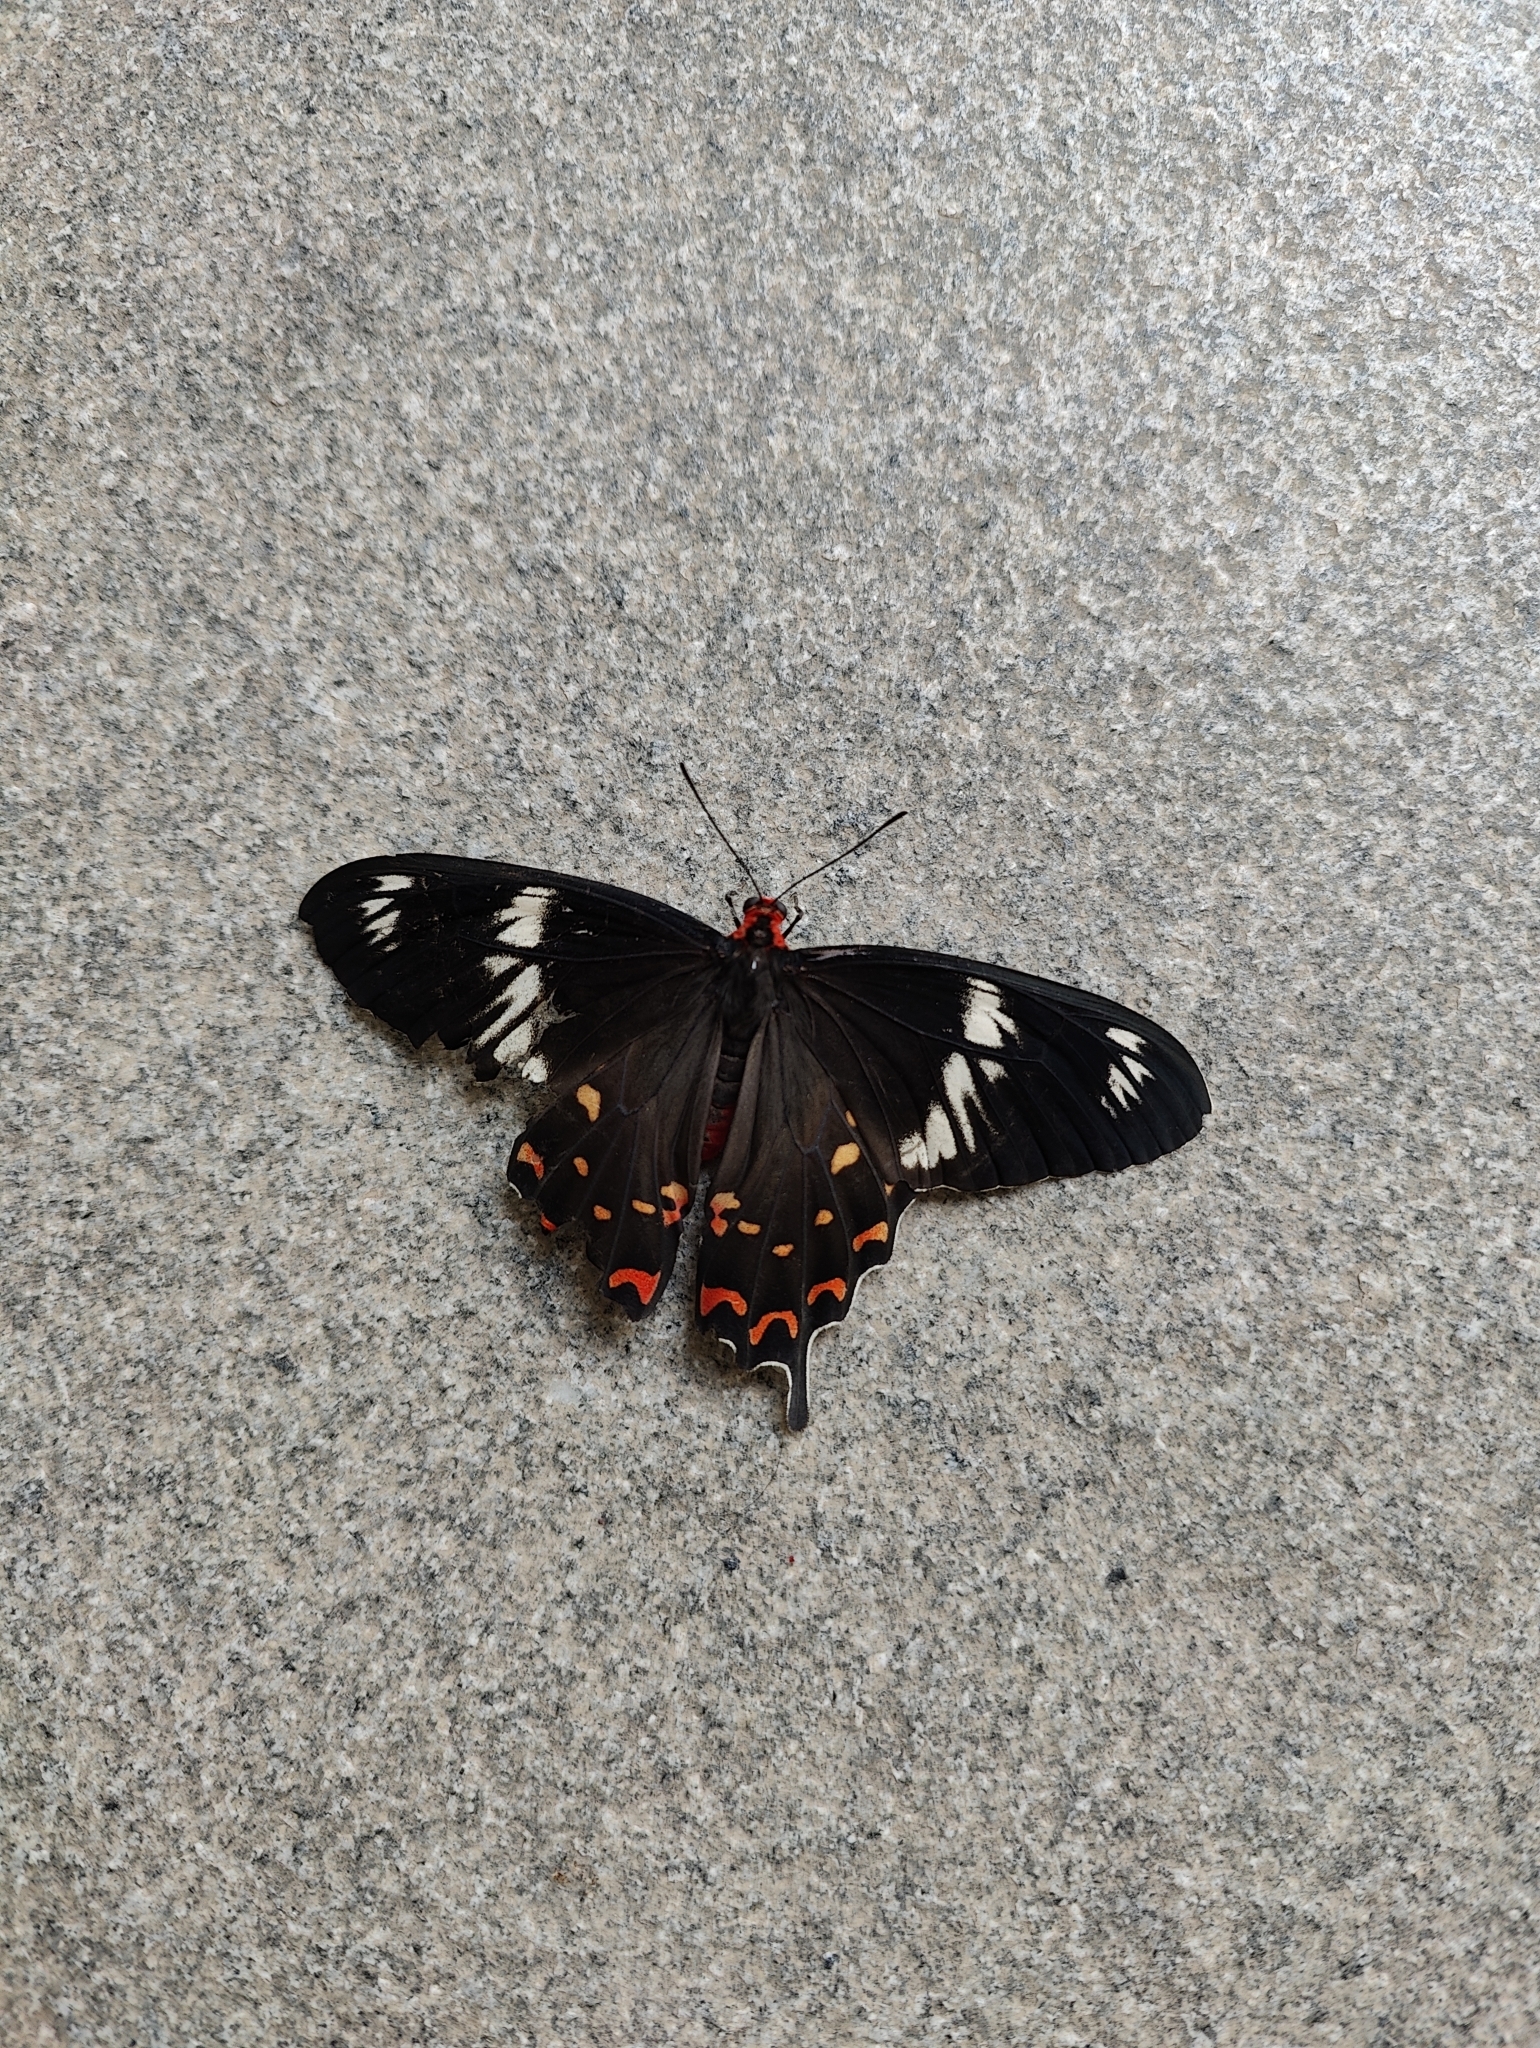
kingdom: Animalia
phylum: Arthropoda
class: Insecta
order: Lepidoptera
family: Papilionidae
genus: Pachliopta
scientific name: Pachliopta hector
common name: Crimson rose
